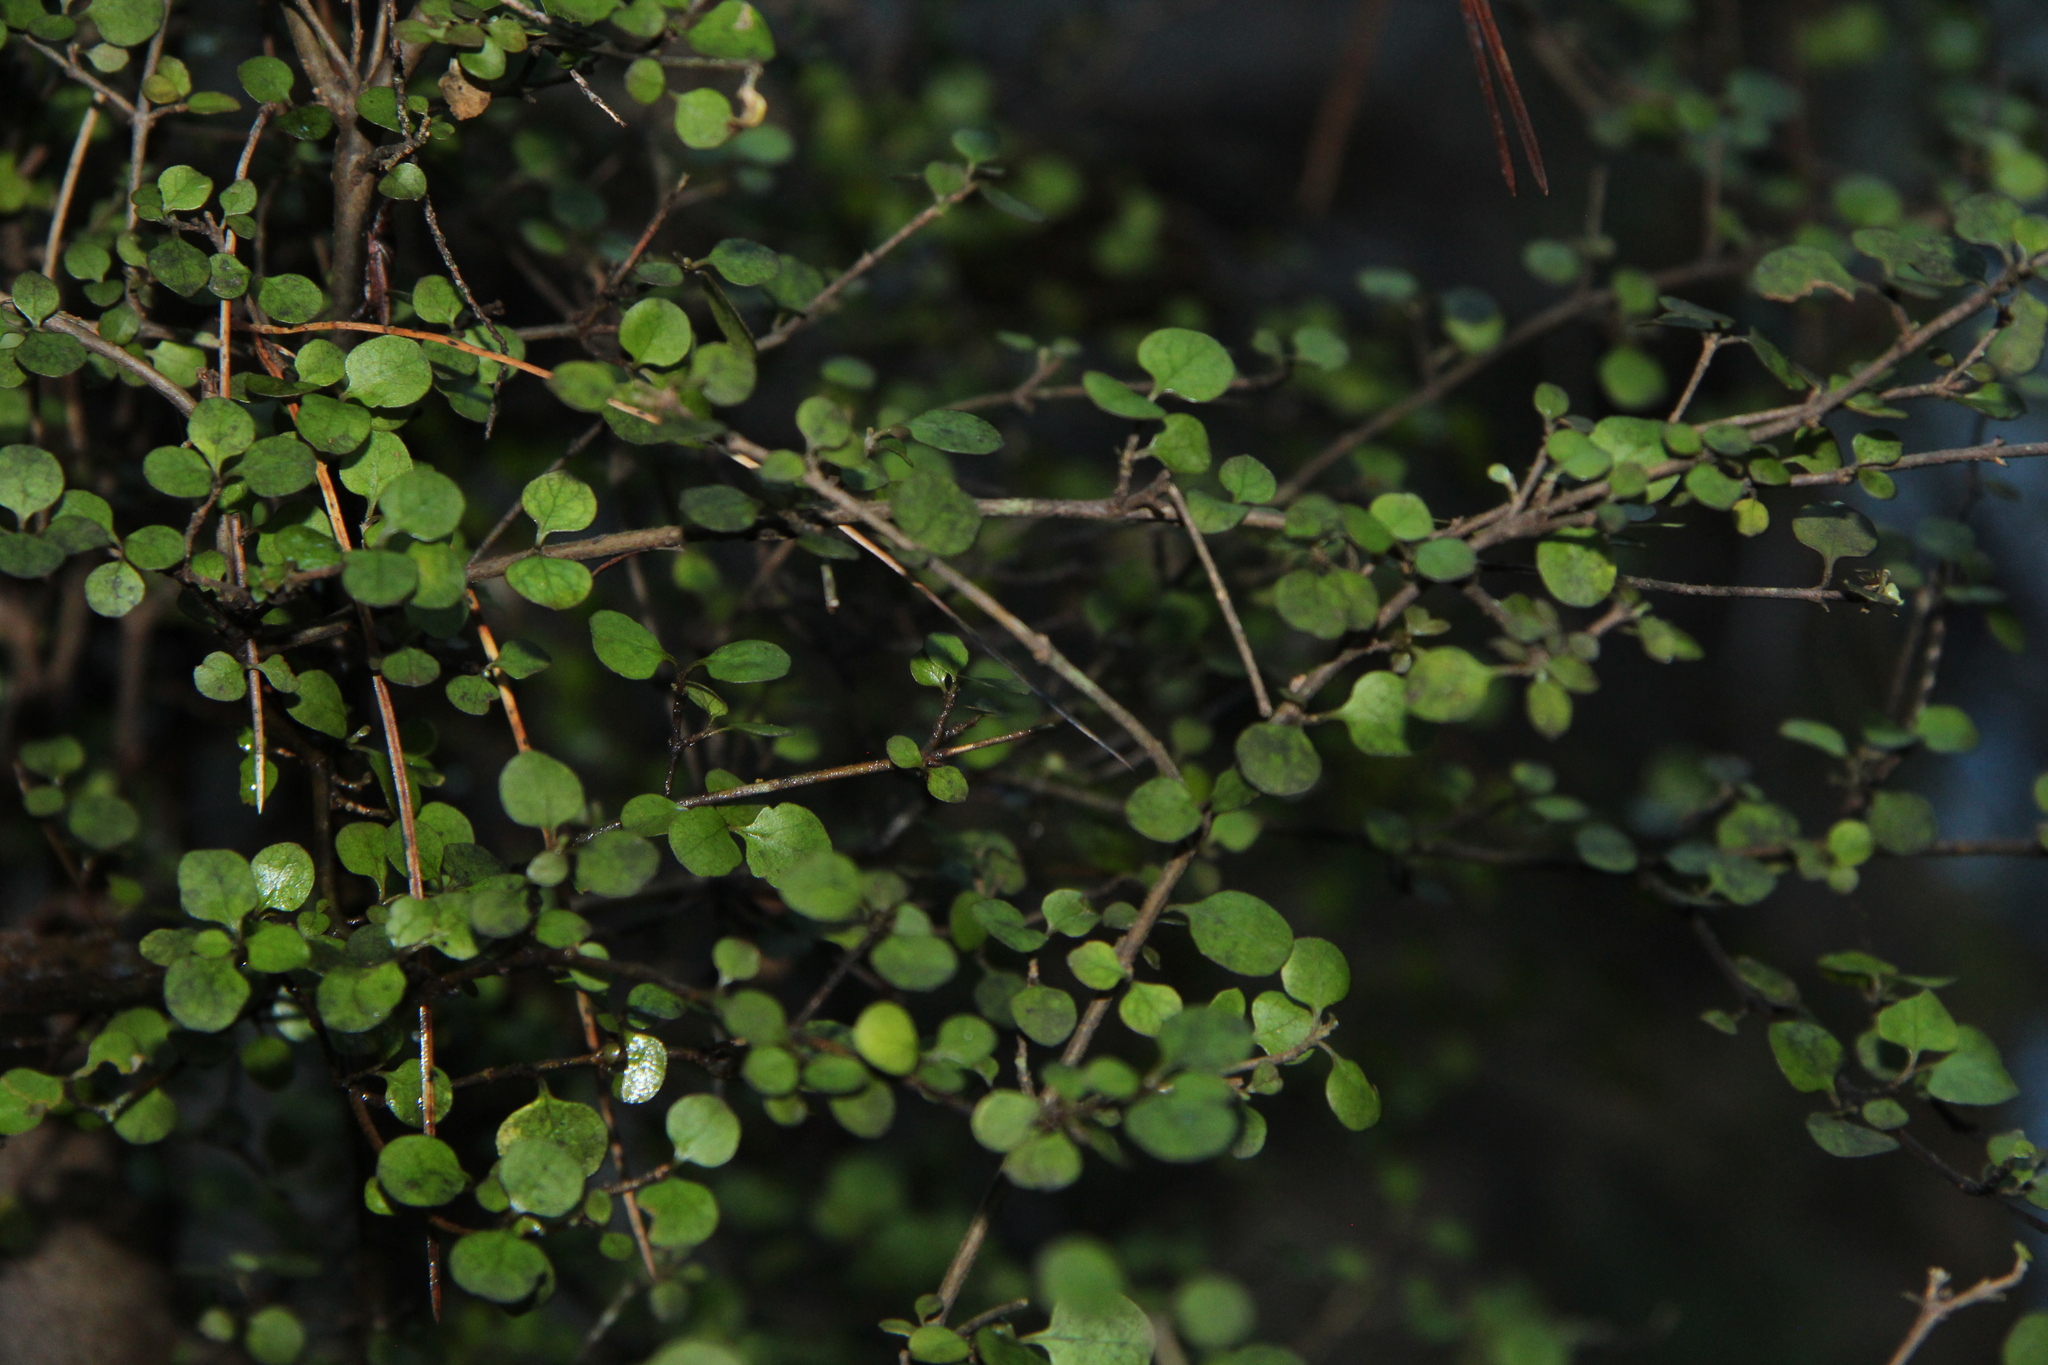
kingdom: Plantae
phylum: Tracheophyta
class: Magnoliopsida
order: Gentianales
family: Rubiaceae
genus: Coprosma
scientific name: Coprosma rhamnoides
